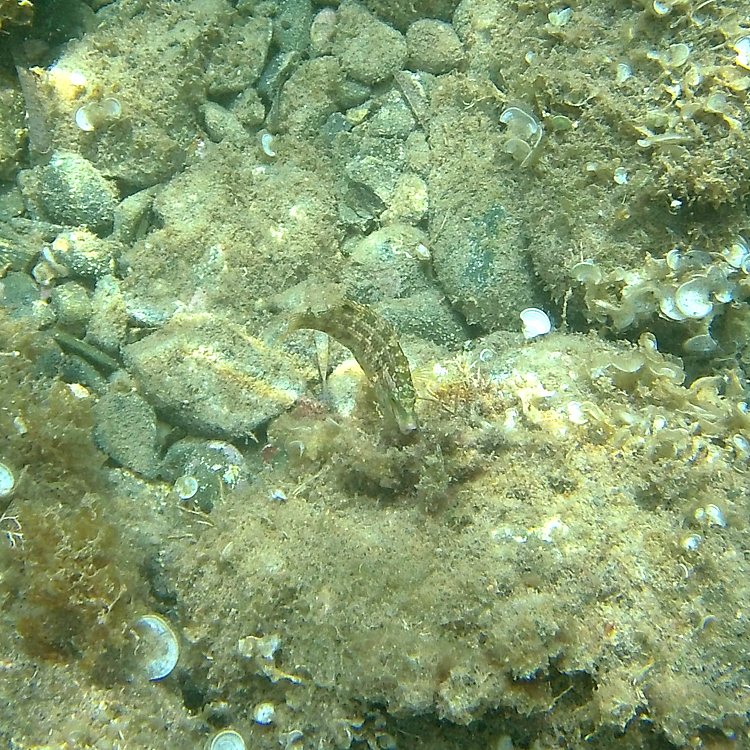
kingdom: Animalia
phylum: Chordata
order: Perciformes
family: Labridae
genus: Symphodus
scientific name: Symphodus roissali
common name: Five-spotted wrasse
